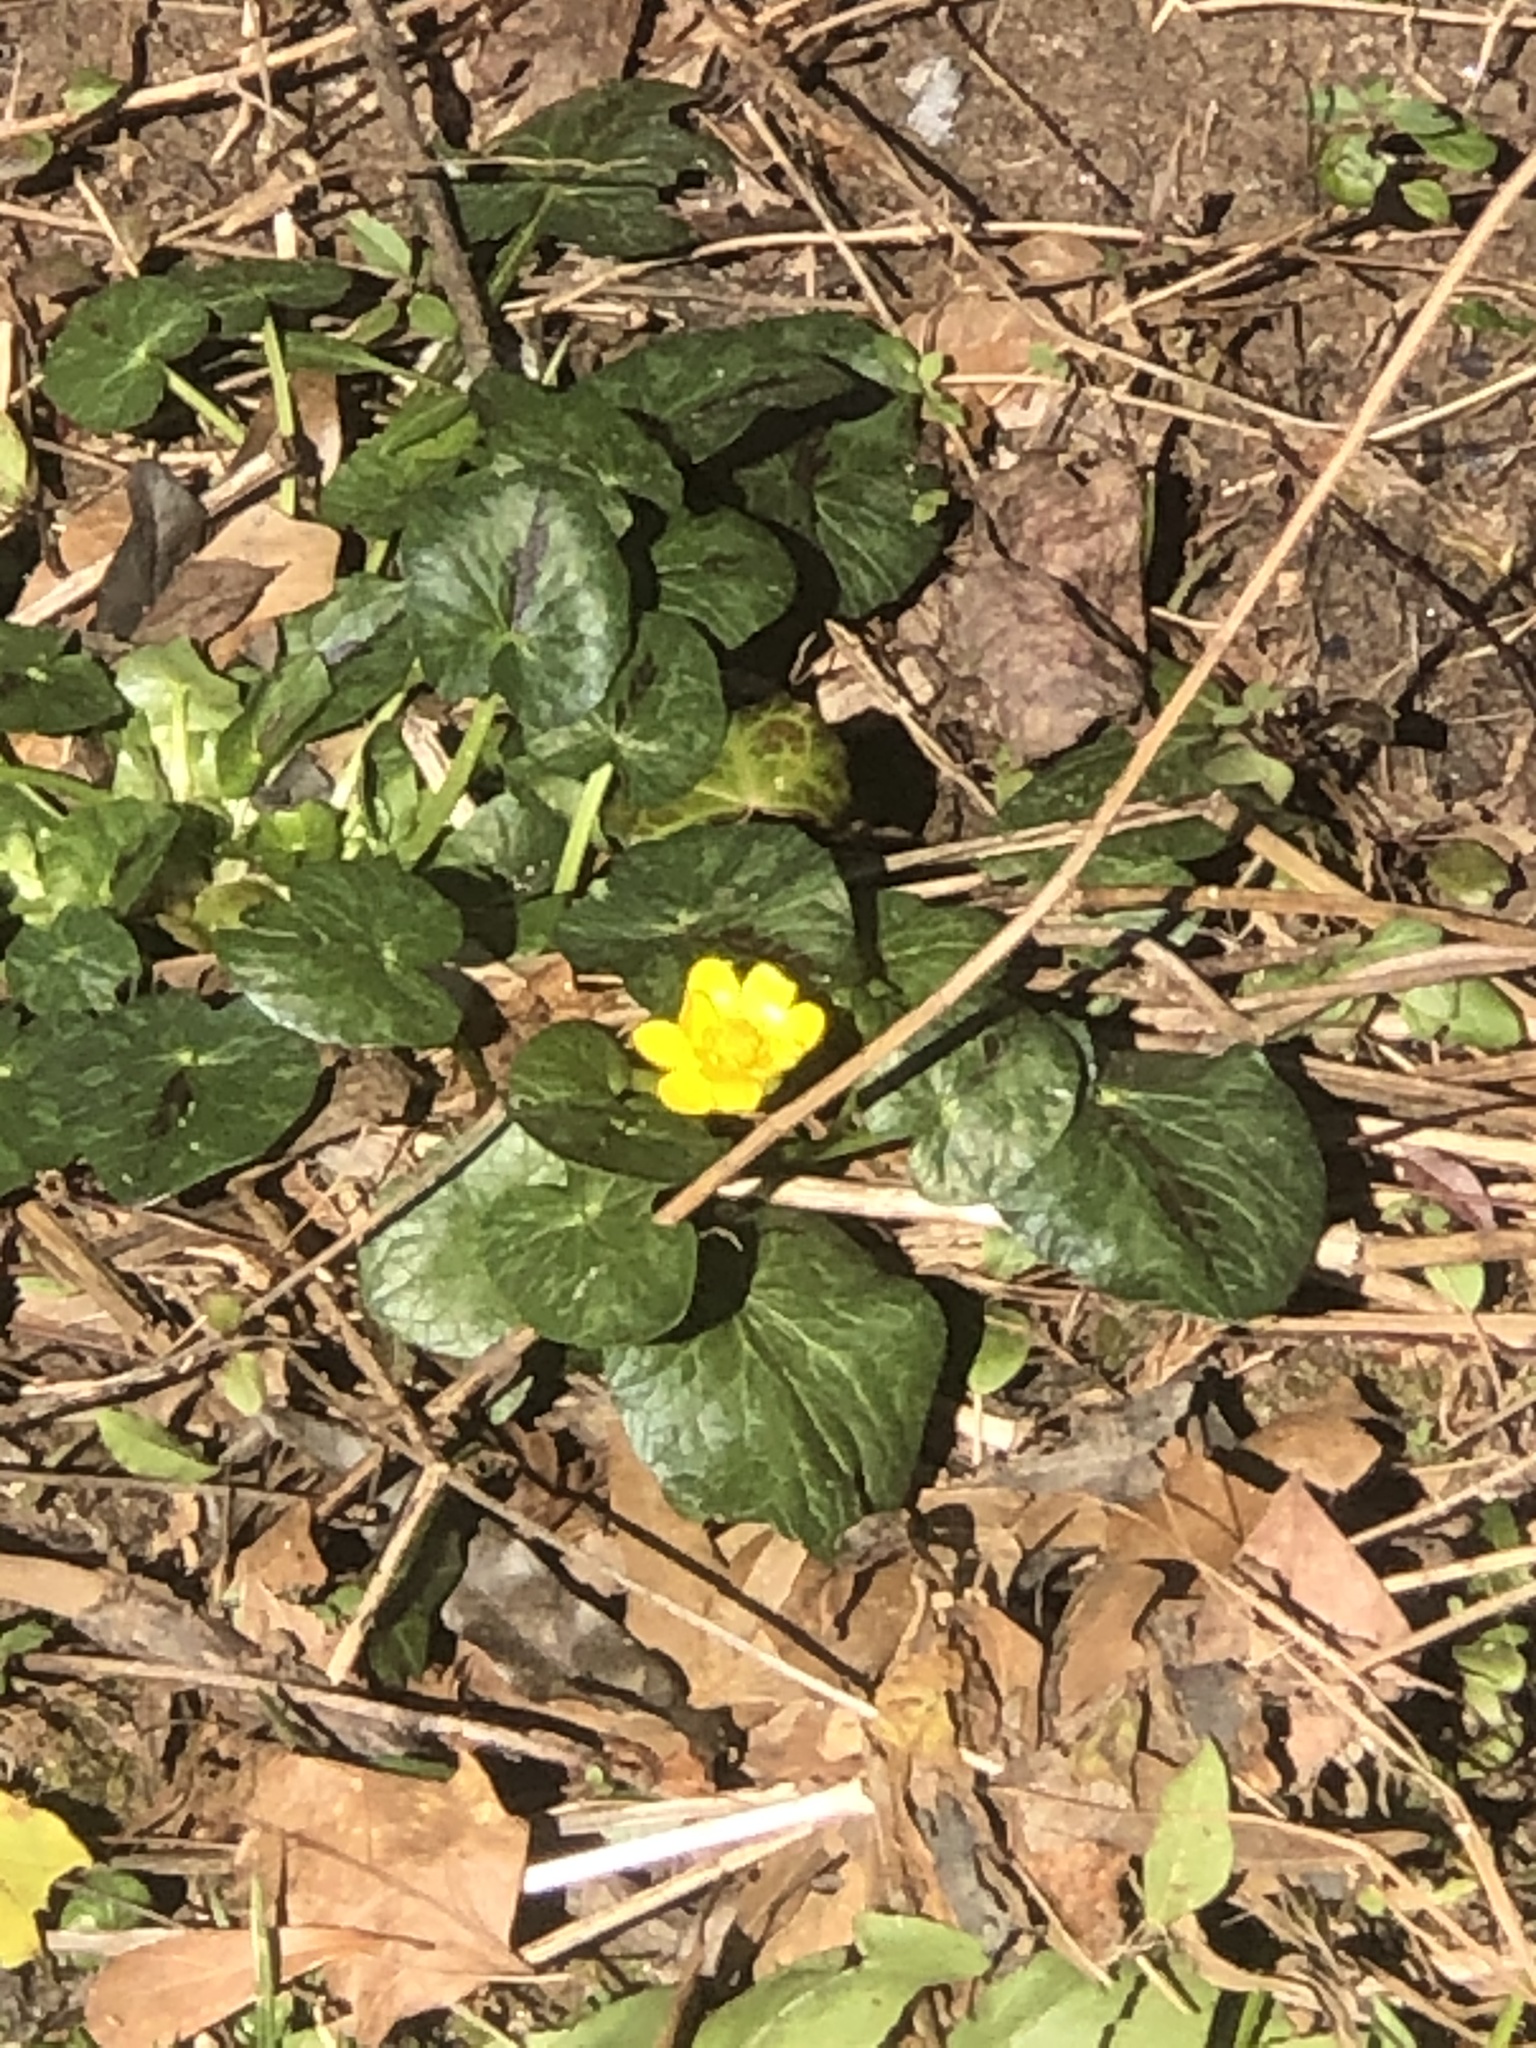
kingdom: Plantae
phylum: Tracheophyta
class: Magnoliopsida
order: Ranunculales
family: Ranunculaceae
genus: Ficaria
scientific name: Ficaria verna
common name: Lesser celandine
